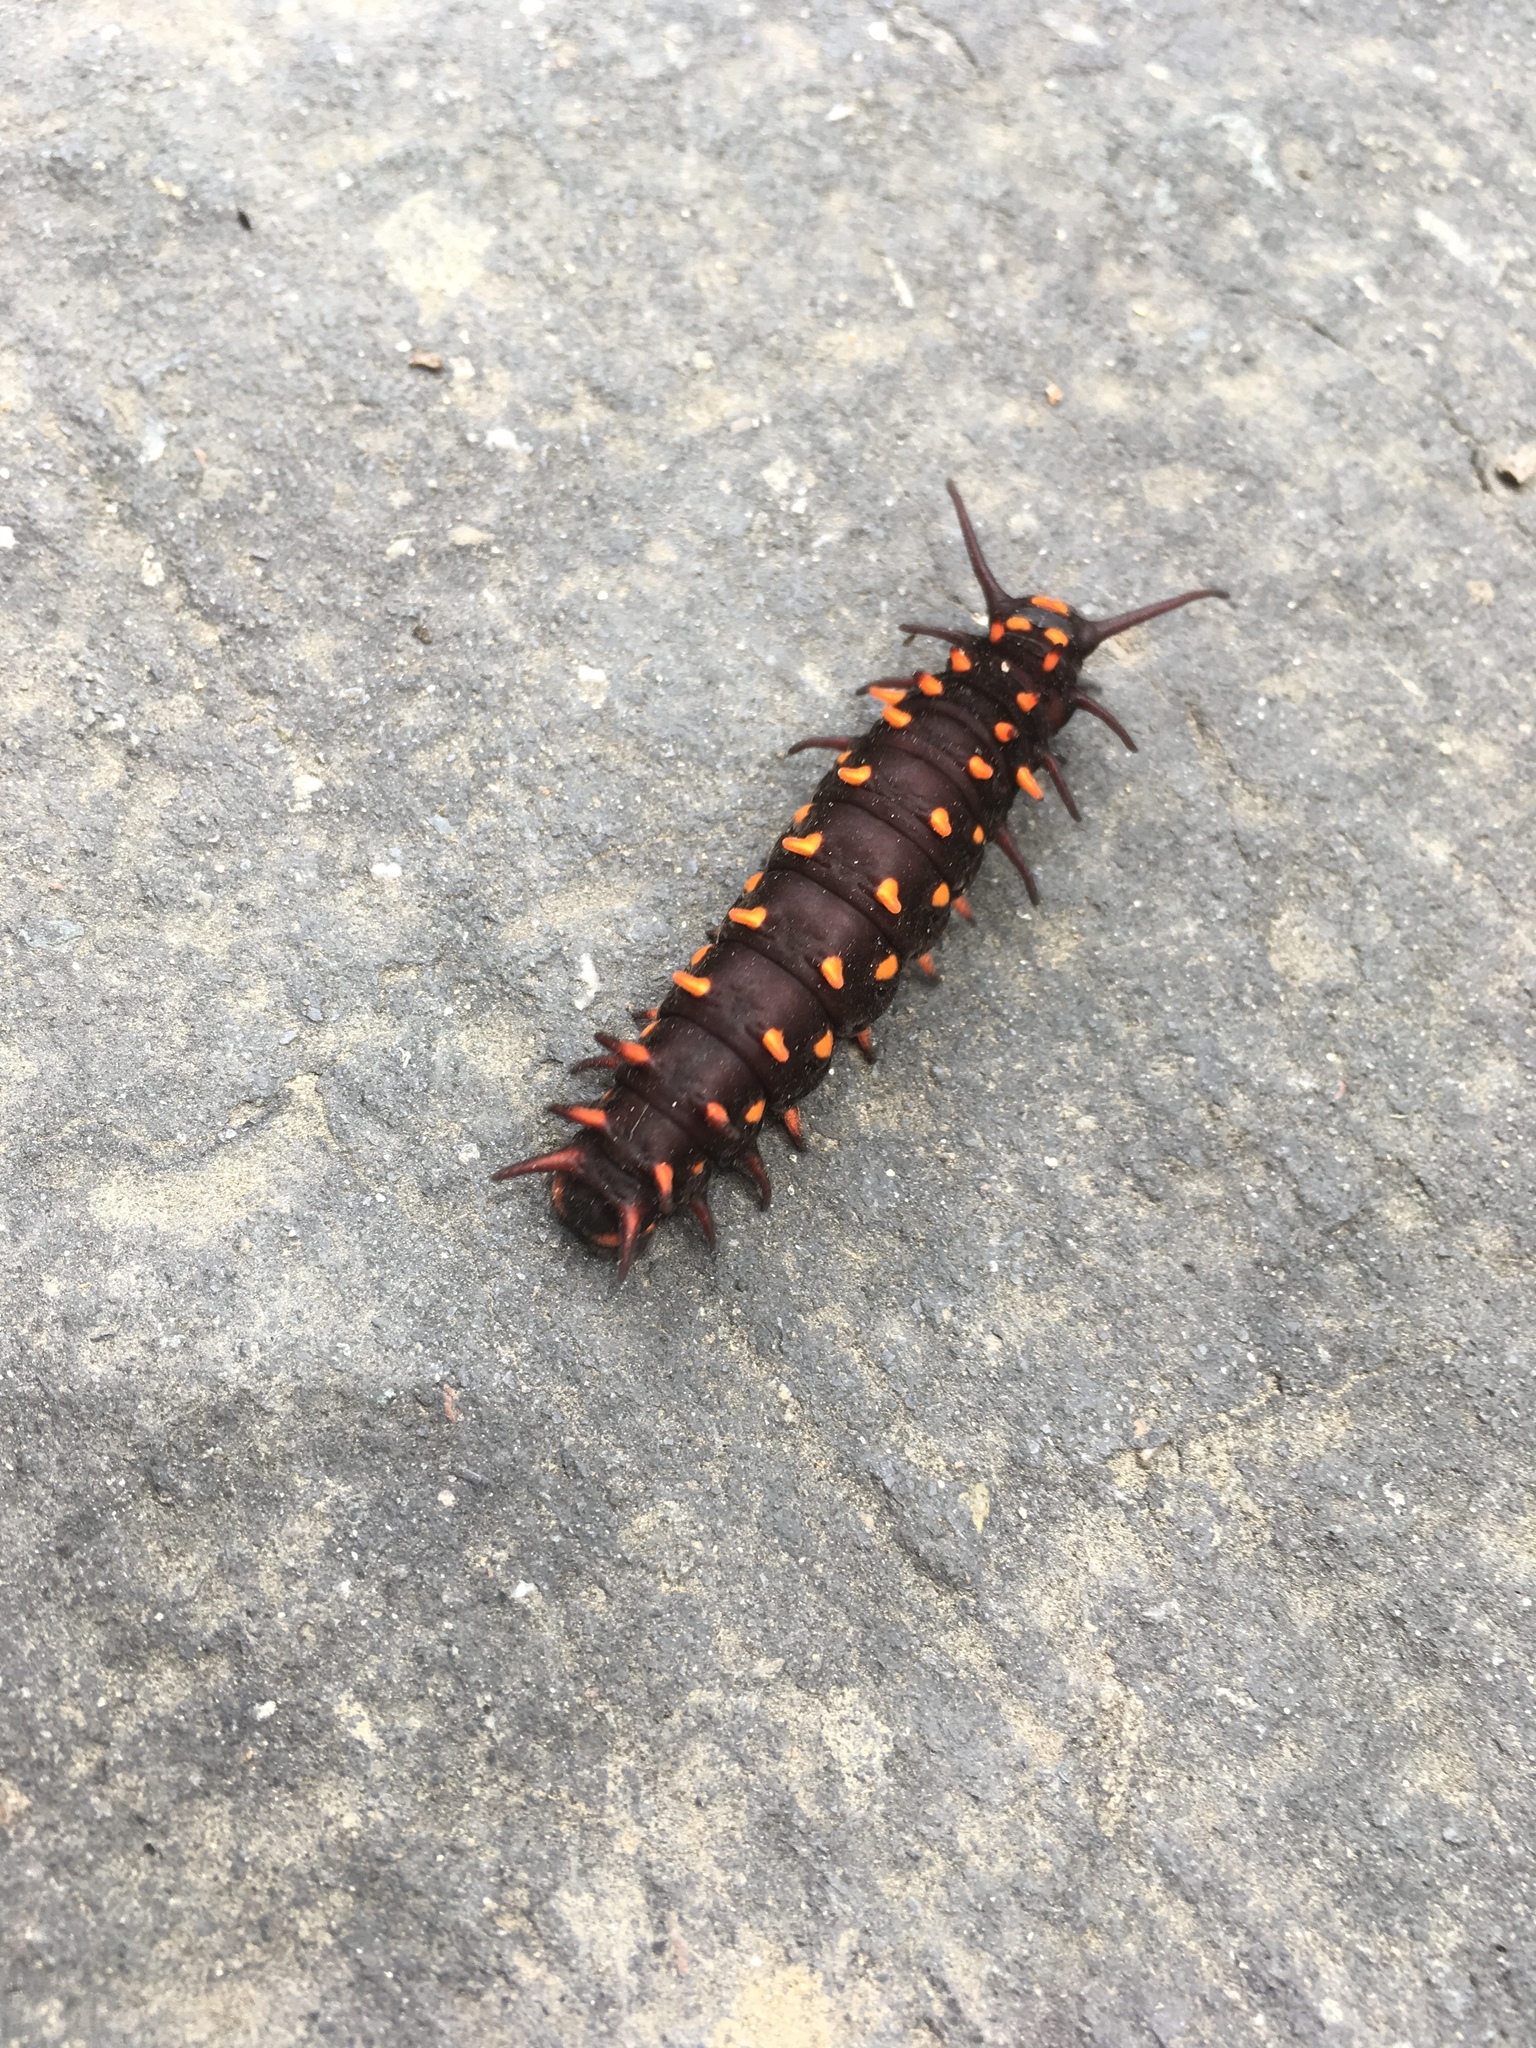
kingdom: Animalia
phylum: Arthropoda
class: Insecta
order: Lepidoptera
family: Papilionidae
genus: Battus
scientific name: Battus philenor
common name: Pipevine swallowtail
